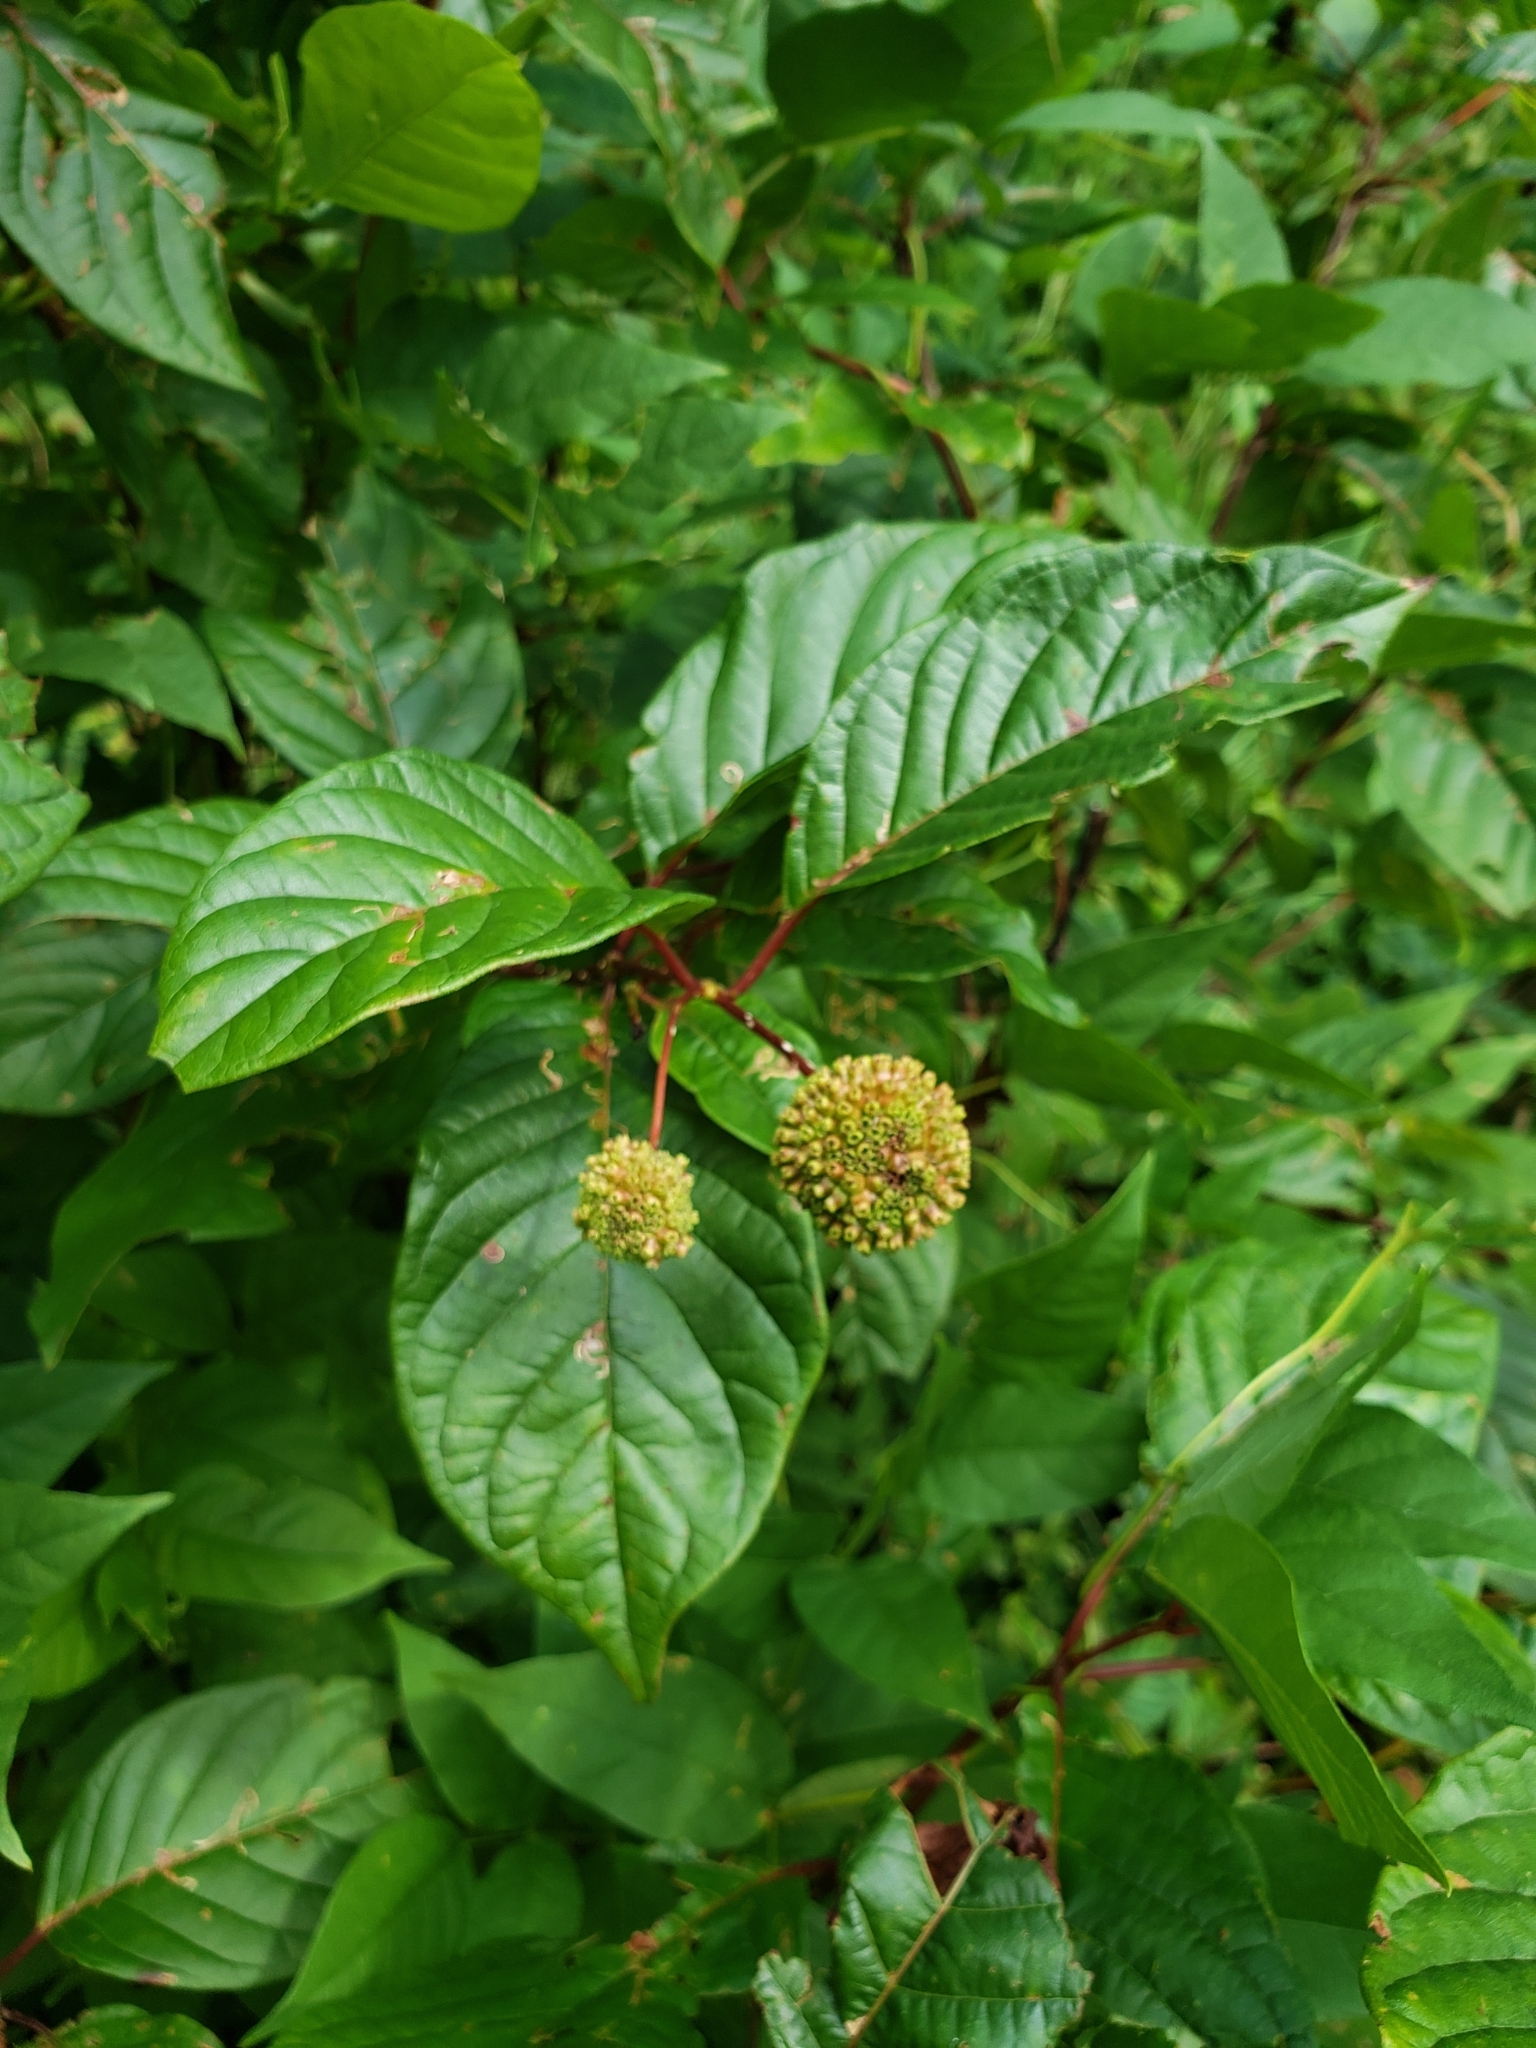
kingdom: Plantae
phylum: Tracheophyta
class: Magnoliopsida
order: Gentianales
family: Rubiaceae
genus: Cephalanthus
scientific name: Cephalanthus occidentalis
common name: Button-willow
